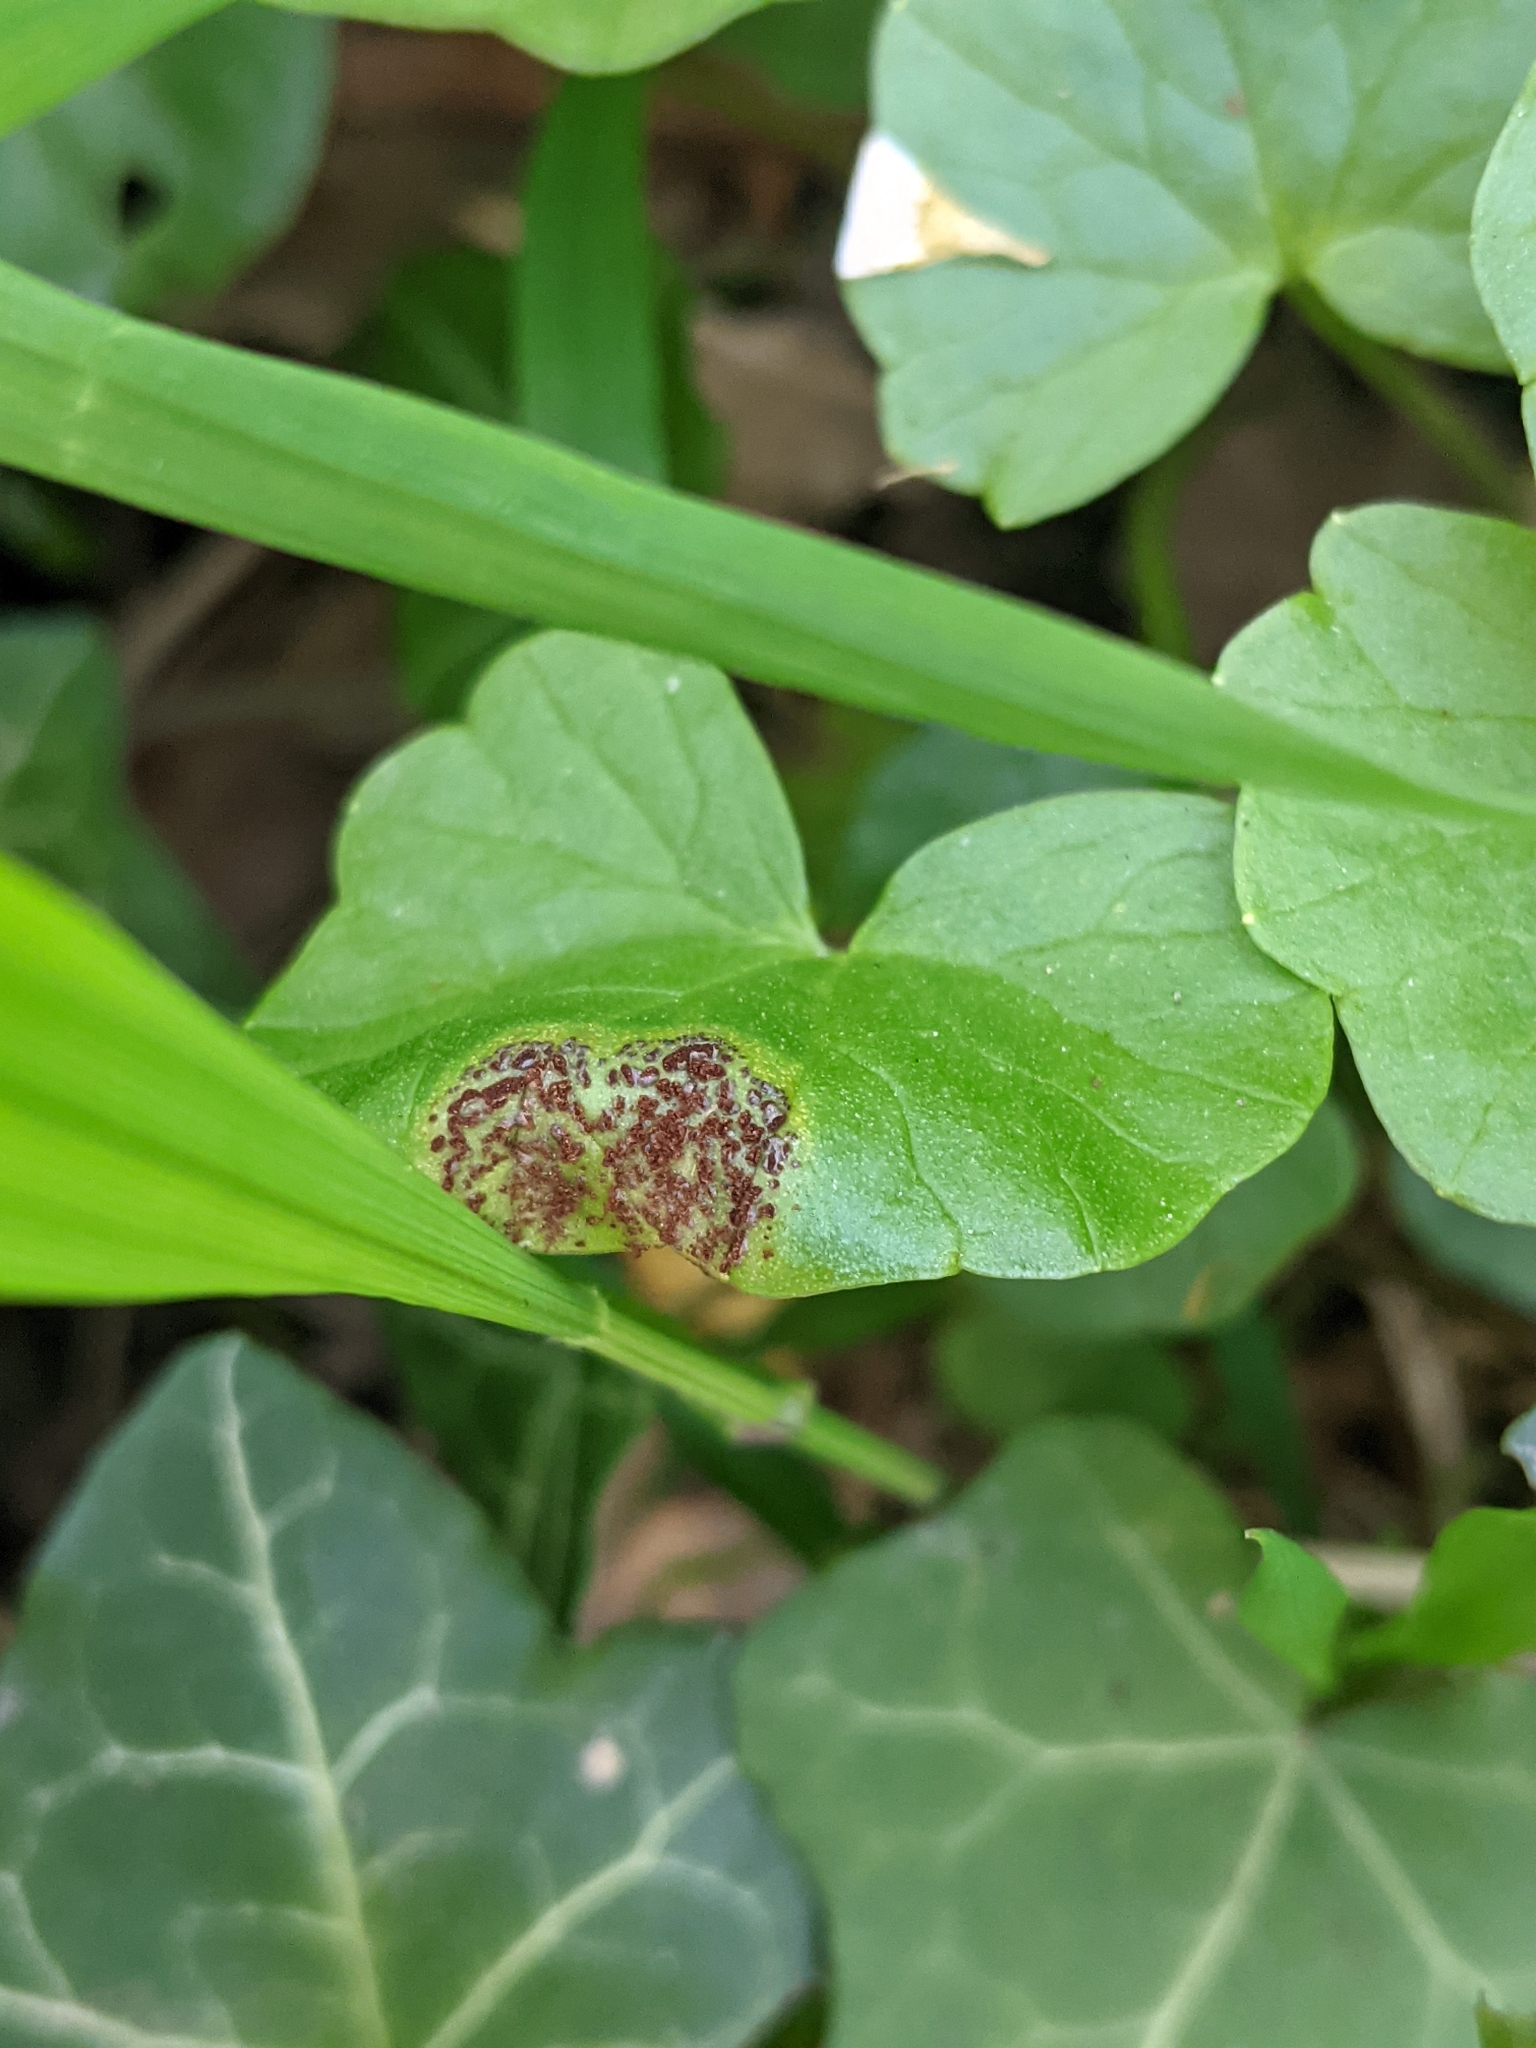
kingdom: Fungi
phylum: Basidiomycota
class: Pucciniomycetes
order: Pucciniales
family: Pucciniaceae
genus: Uromyces
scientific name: Uromyces ficariae
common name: Bitter chocolate rust
